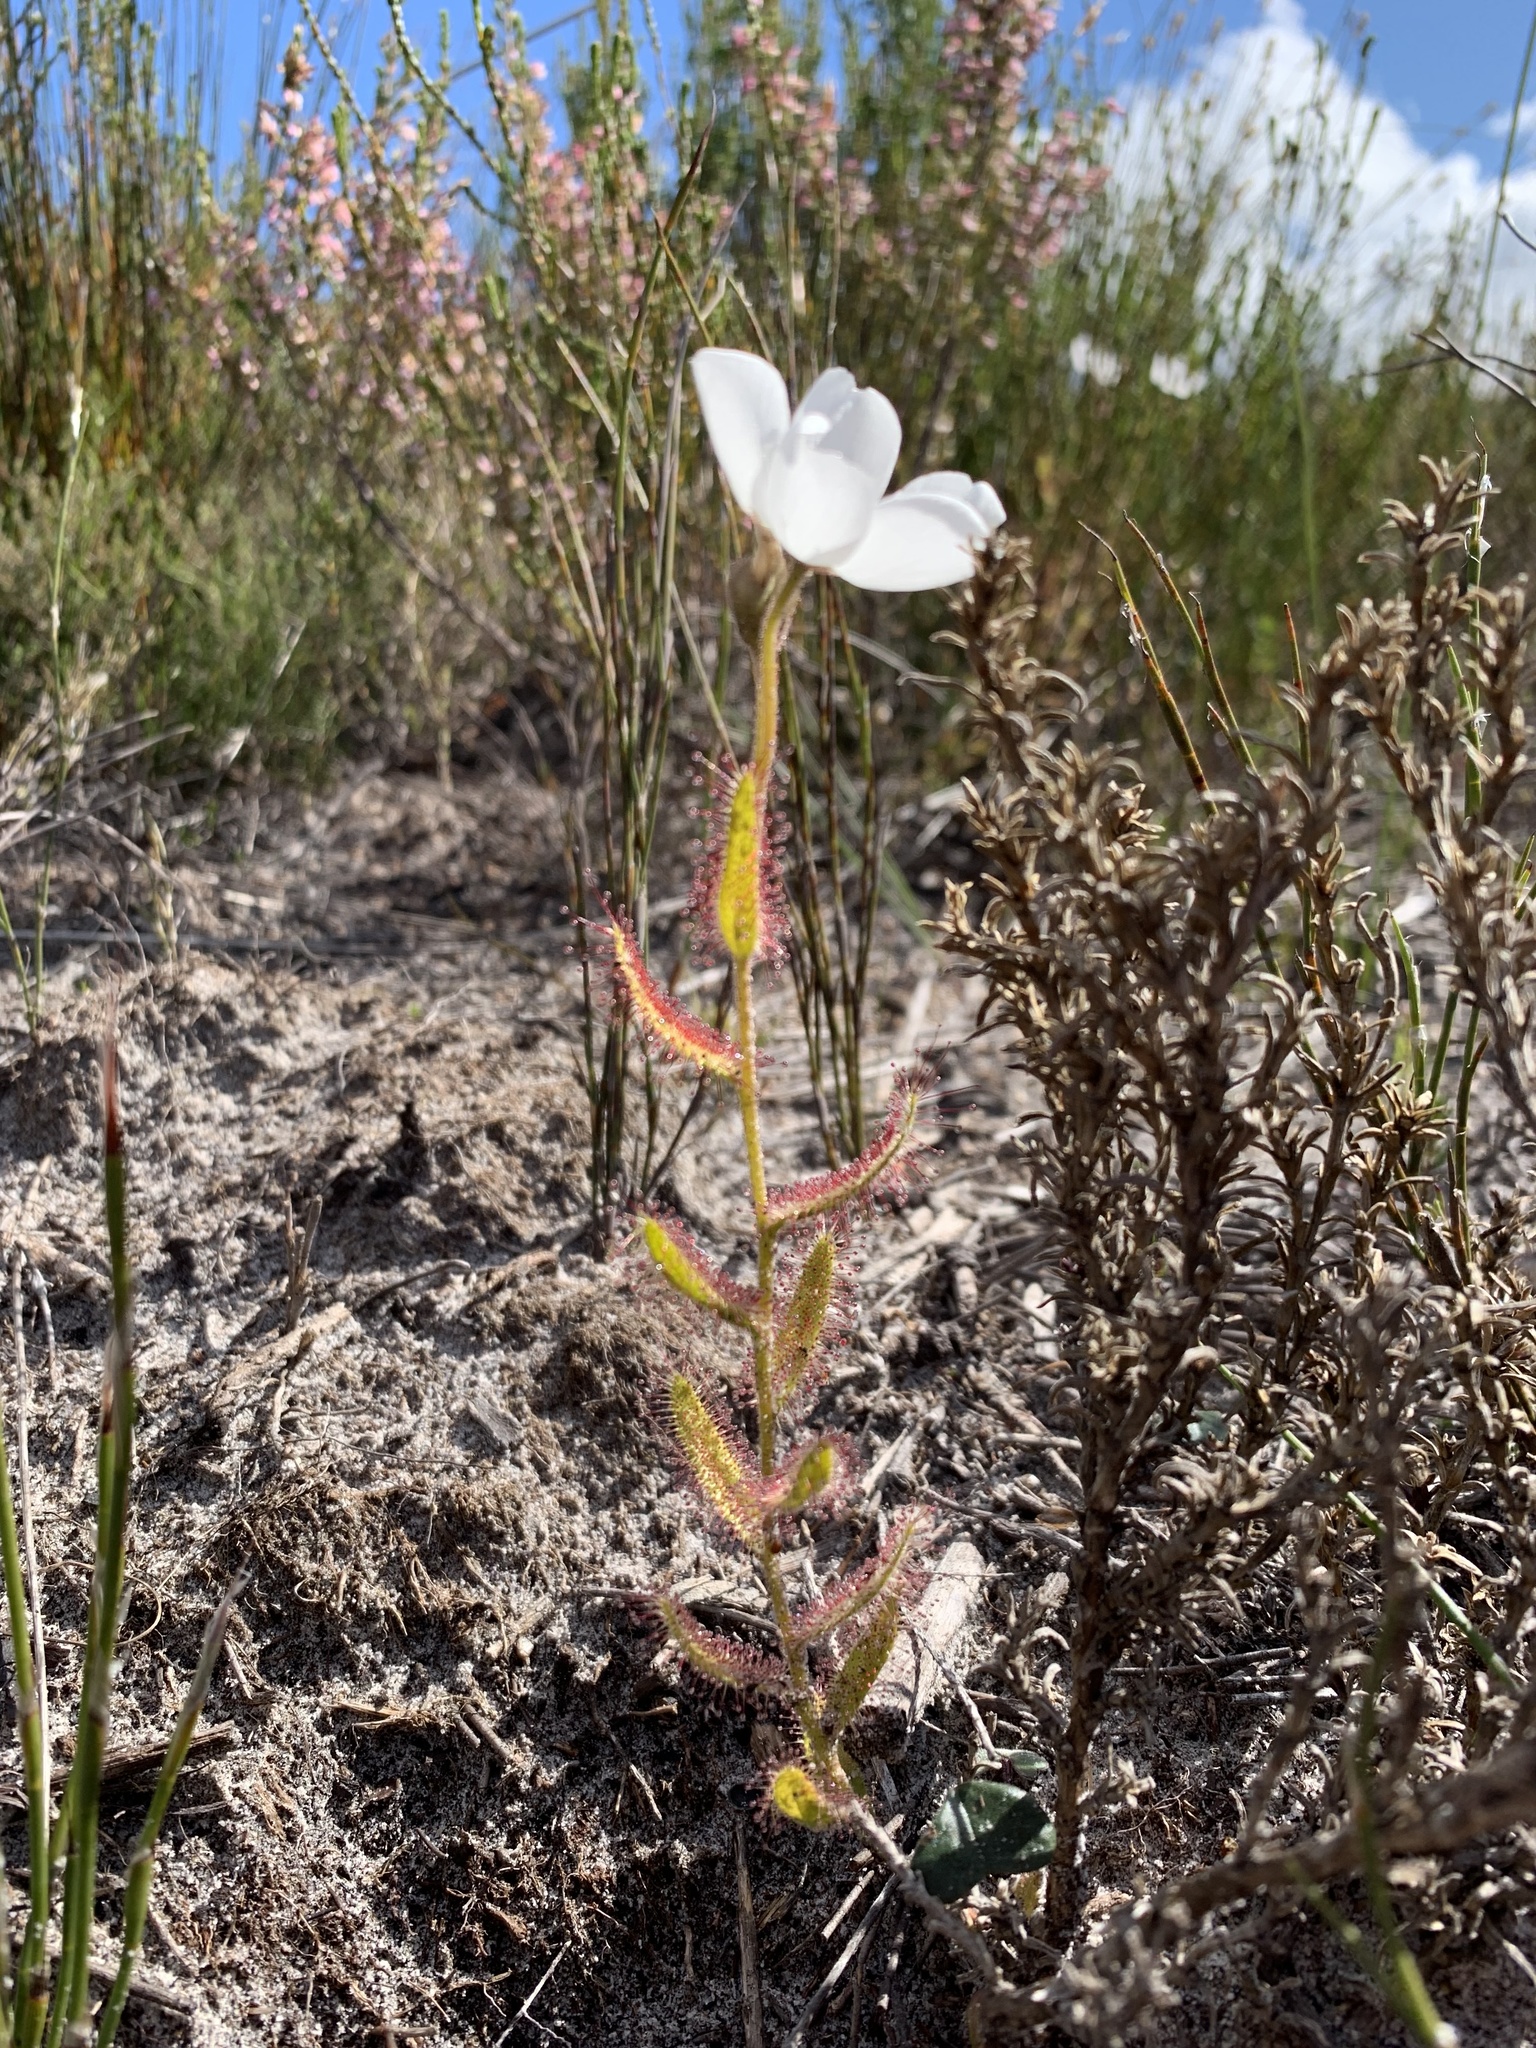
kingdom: Plantae
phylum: Tracheophyta
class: Magnoliopsida
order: Caryophyllales
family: Droseraceae
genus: Drosera
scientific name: Drosera cistiflora
